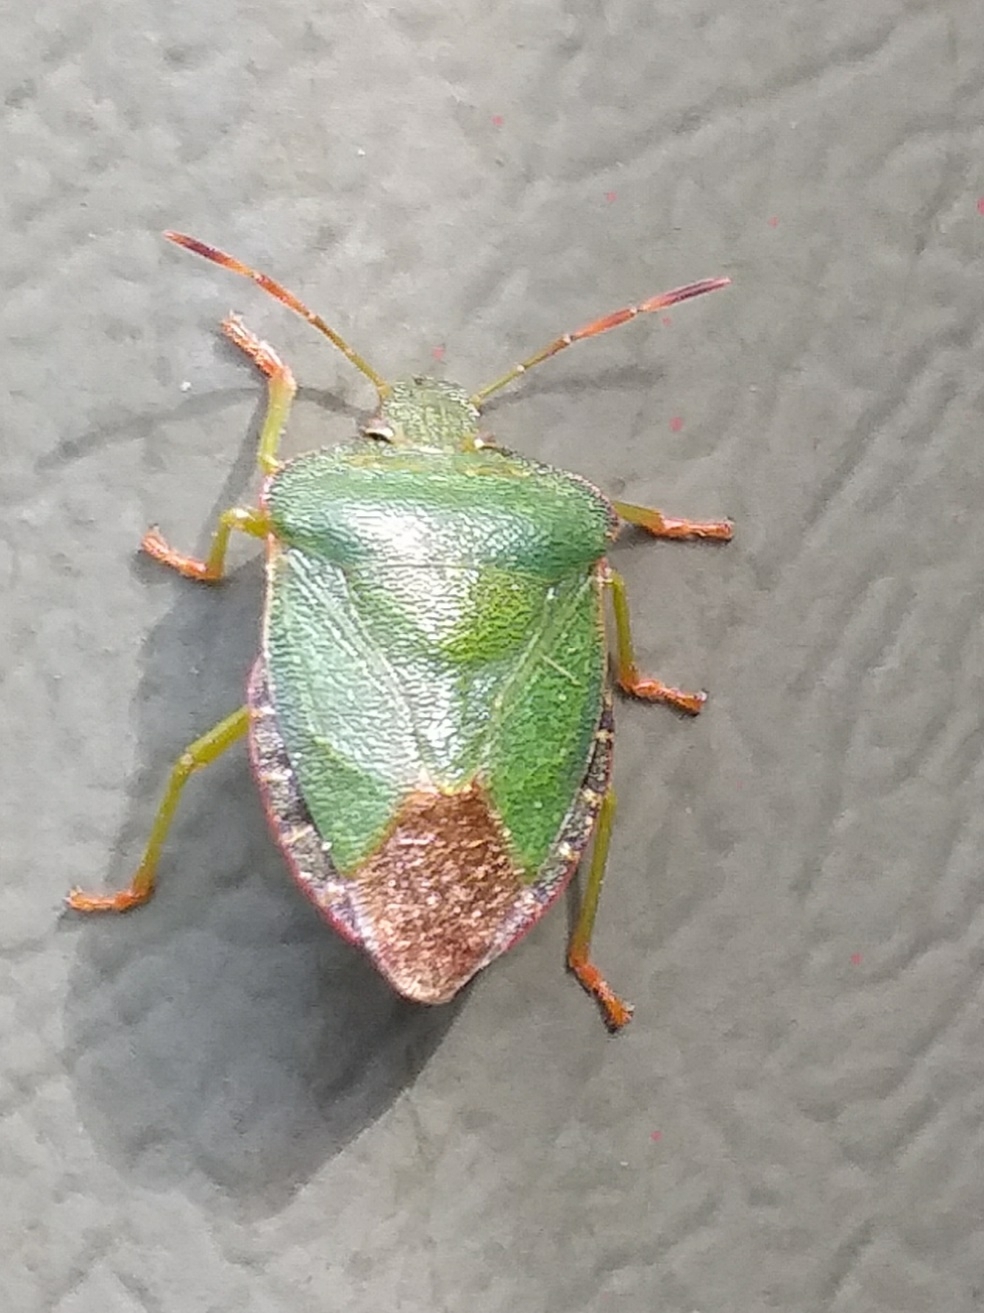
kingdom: Animalia
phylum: Arthropoda
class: Insecta
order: Hemiptera
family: Pentatomidae
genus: Palomena
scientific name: Palomena prasina
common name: Green shieldbug
